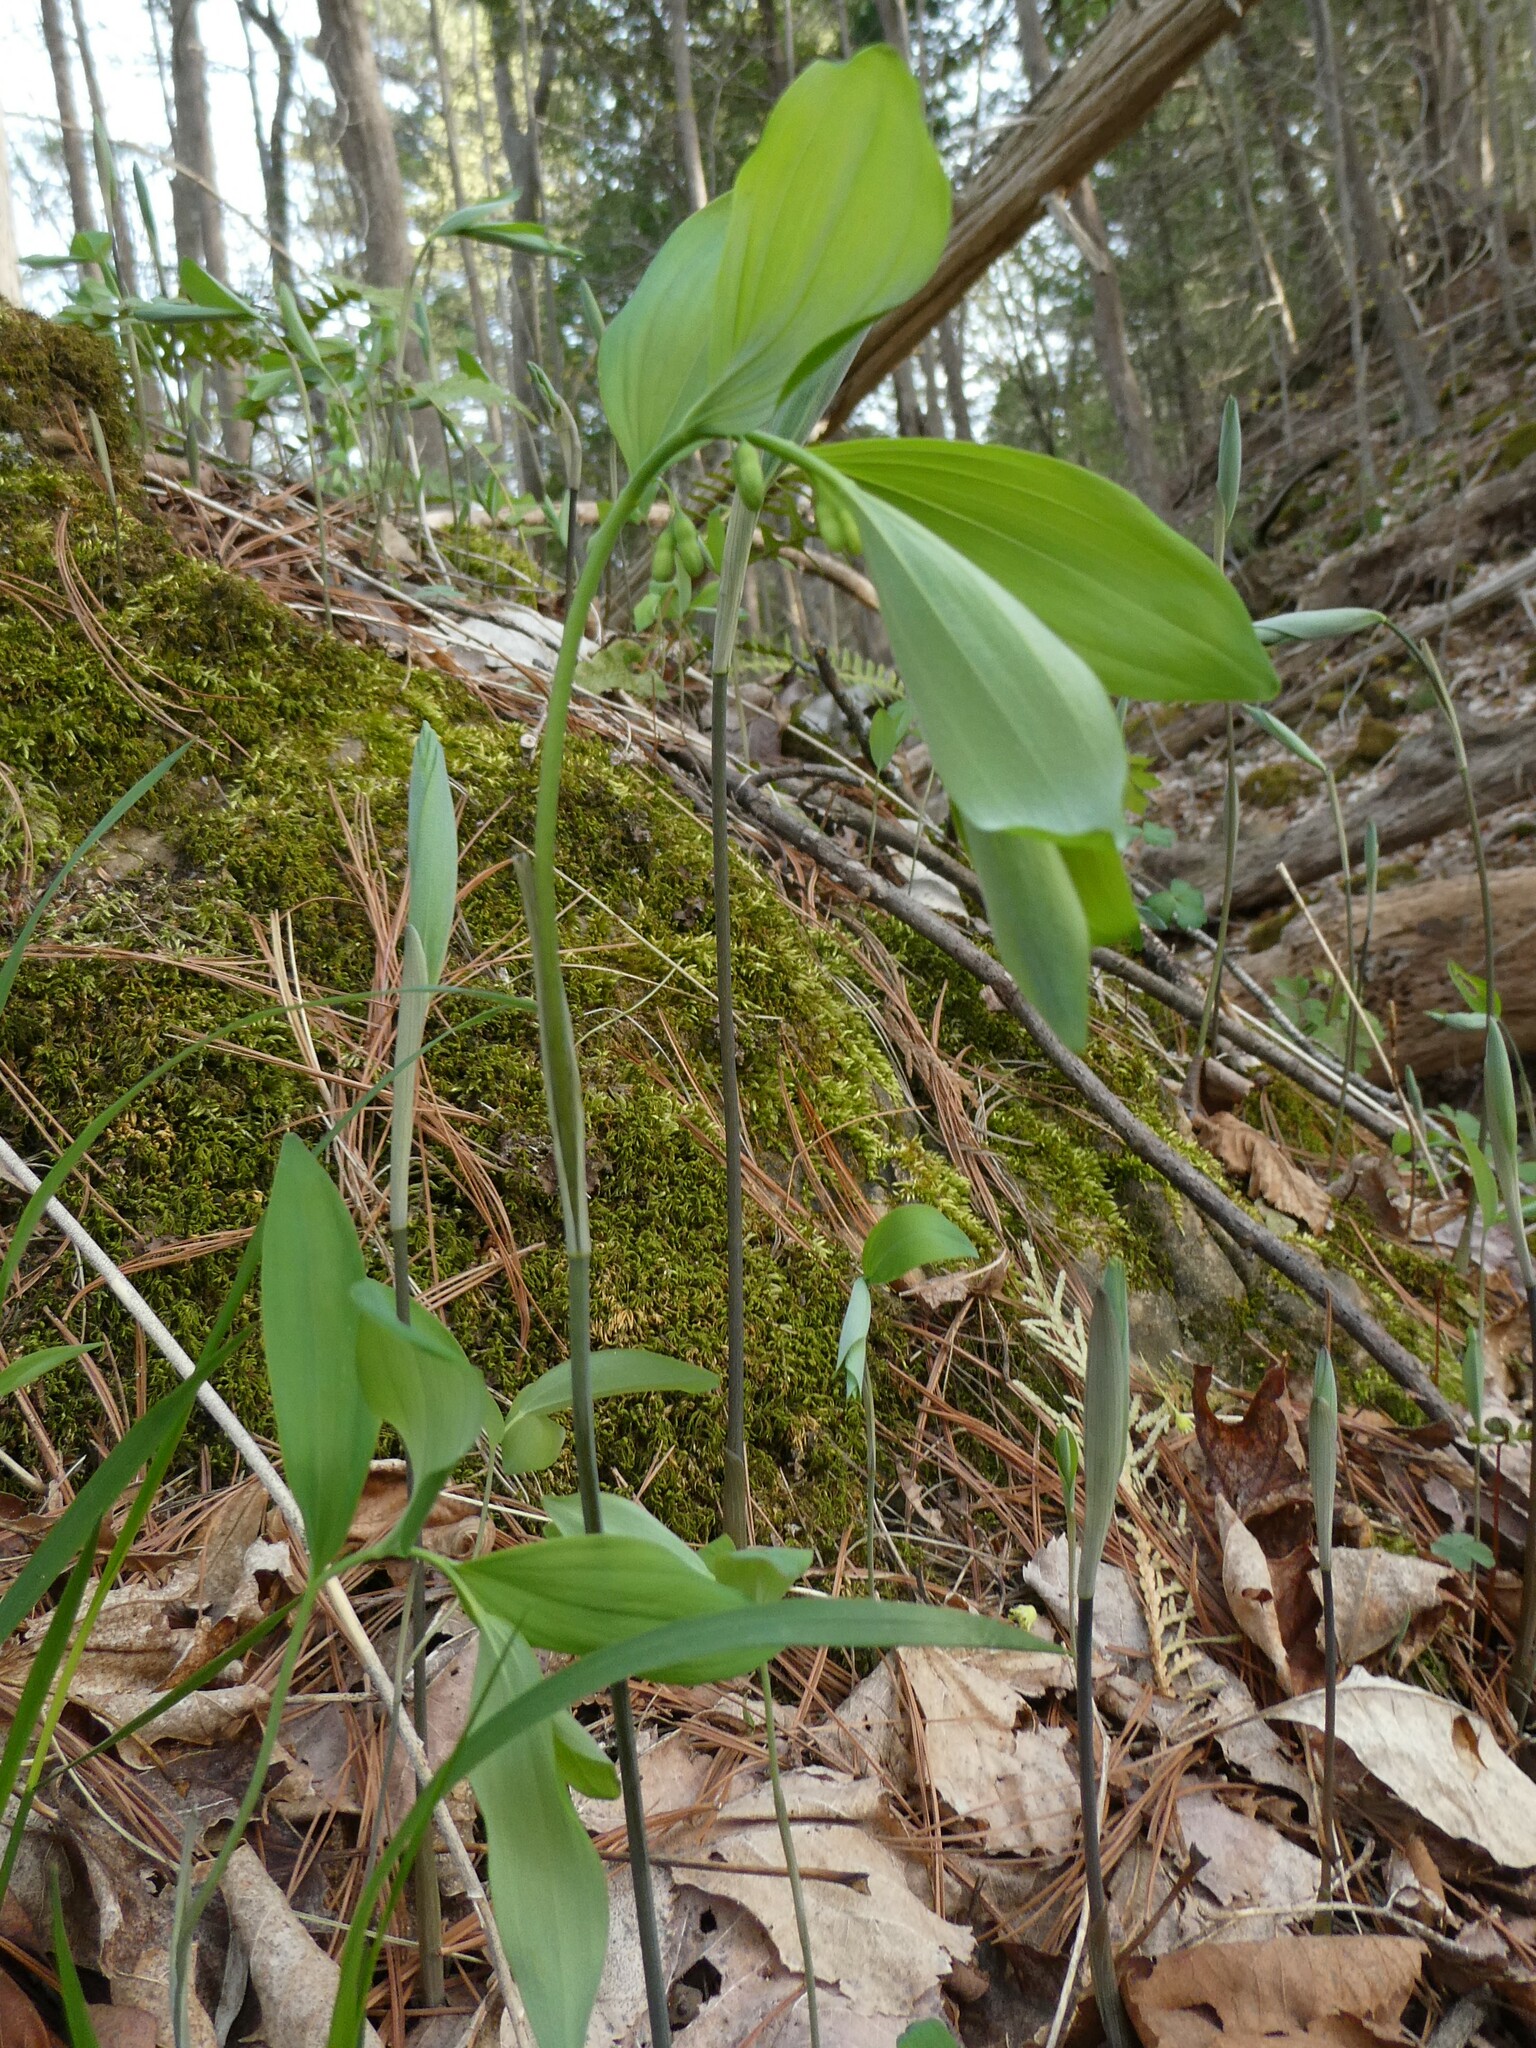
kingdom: Plantae
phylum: Tracheophyta
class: Liliopsida
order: Asparagales
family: Asparagaceae
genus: Polygonatum
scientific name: Polygonatum pubescens
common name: Downy solomon's seal
